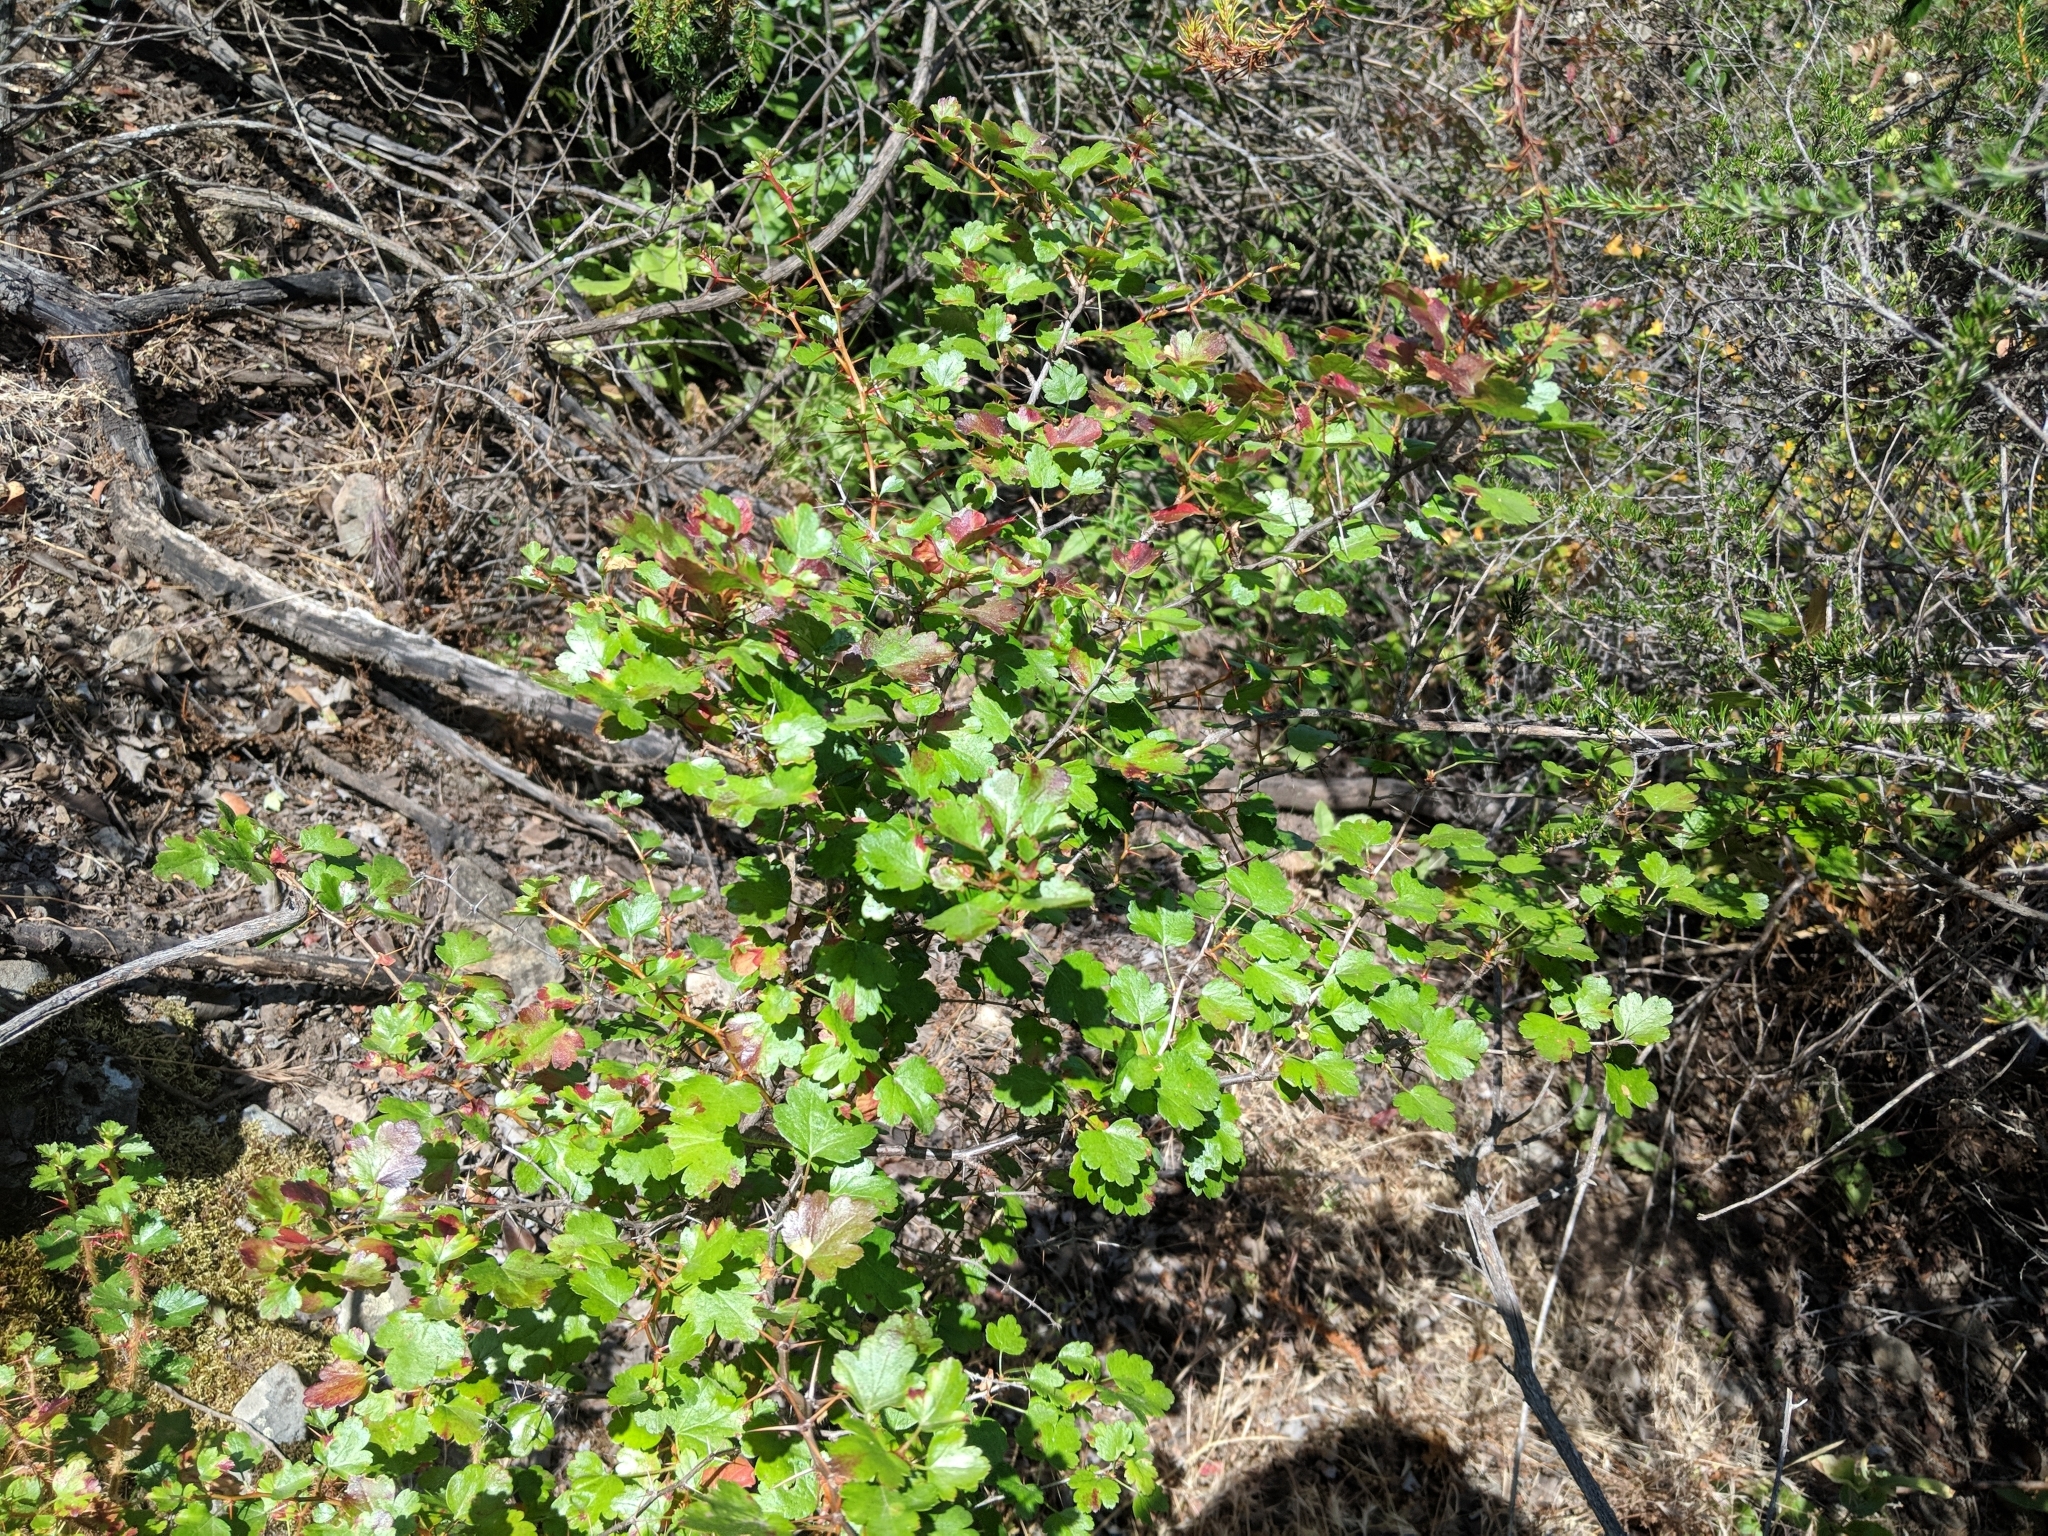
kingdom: Plantae
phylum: Tracheophyta
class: Magnoliopsida
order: Saxifragales
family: Grossulariaceae
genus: Ribes
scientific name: Ribes speciosum
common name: Fuchsia-flower gooseberry
